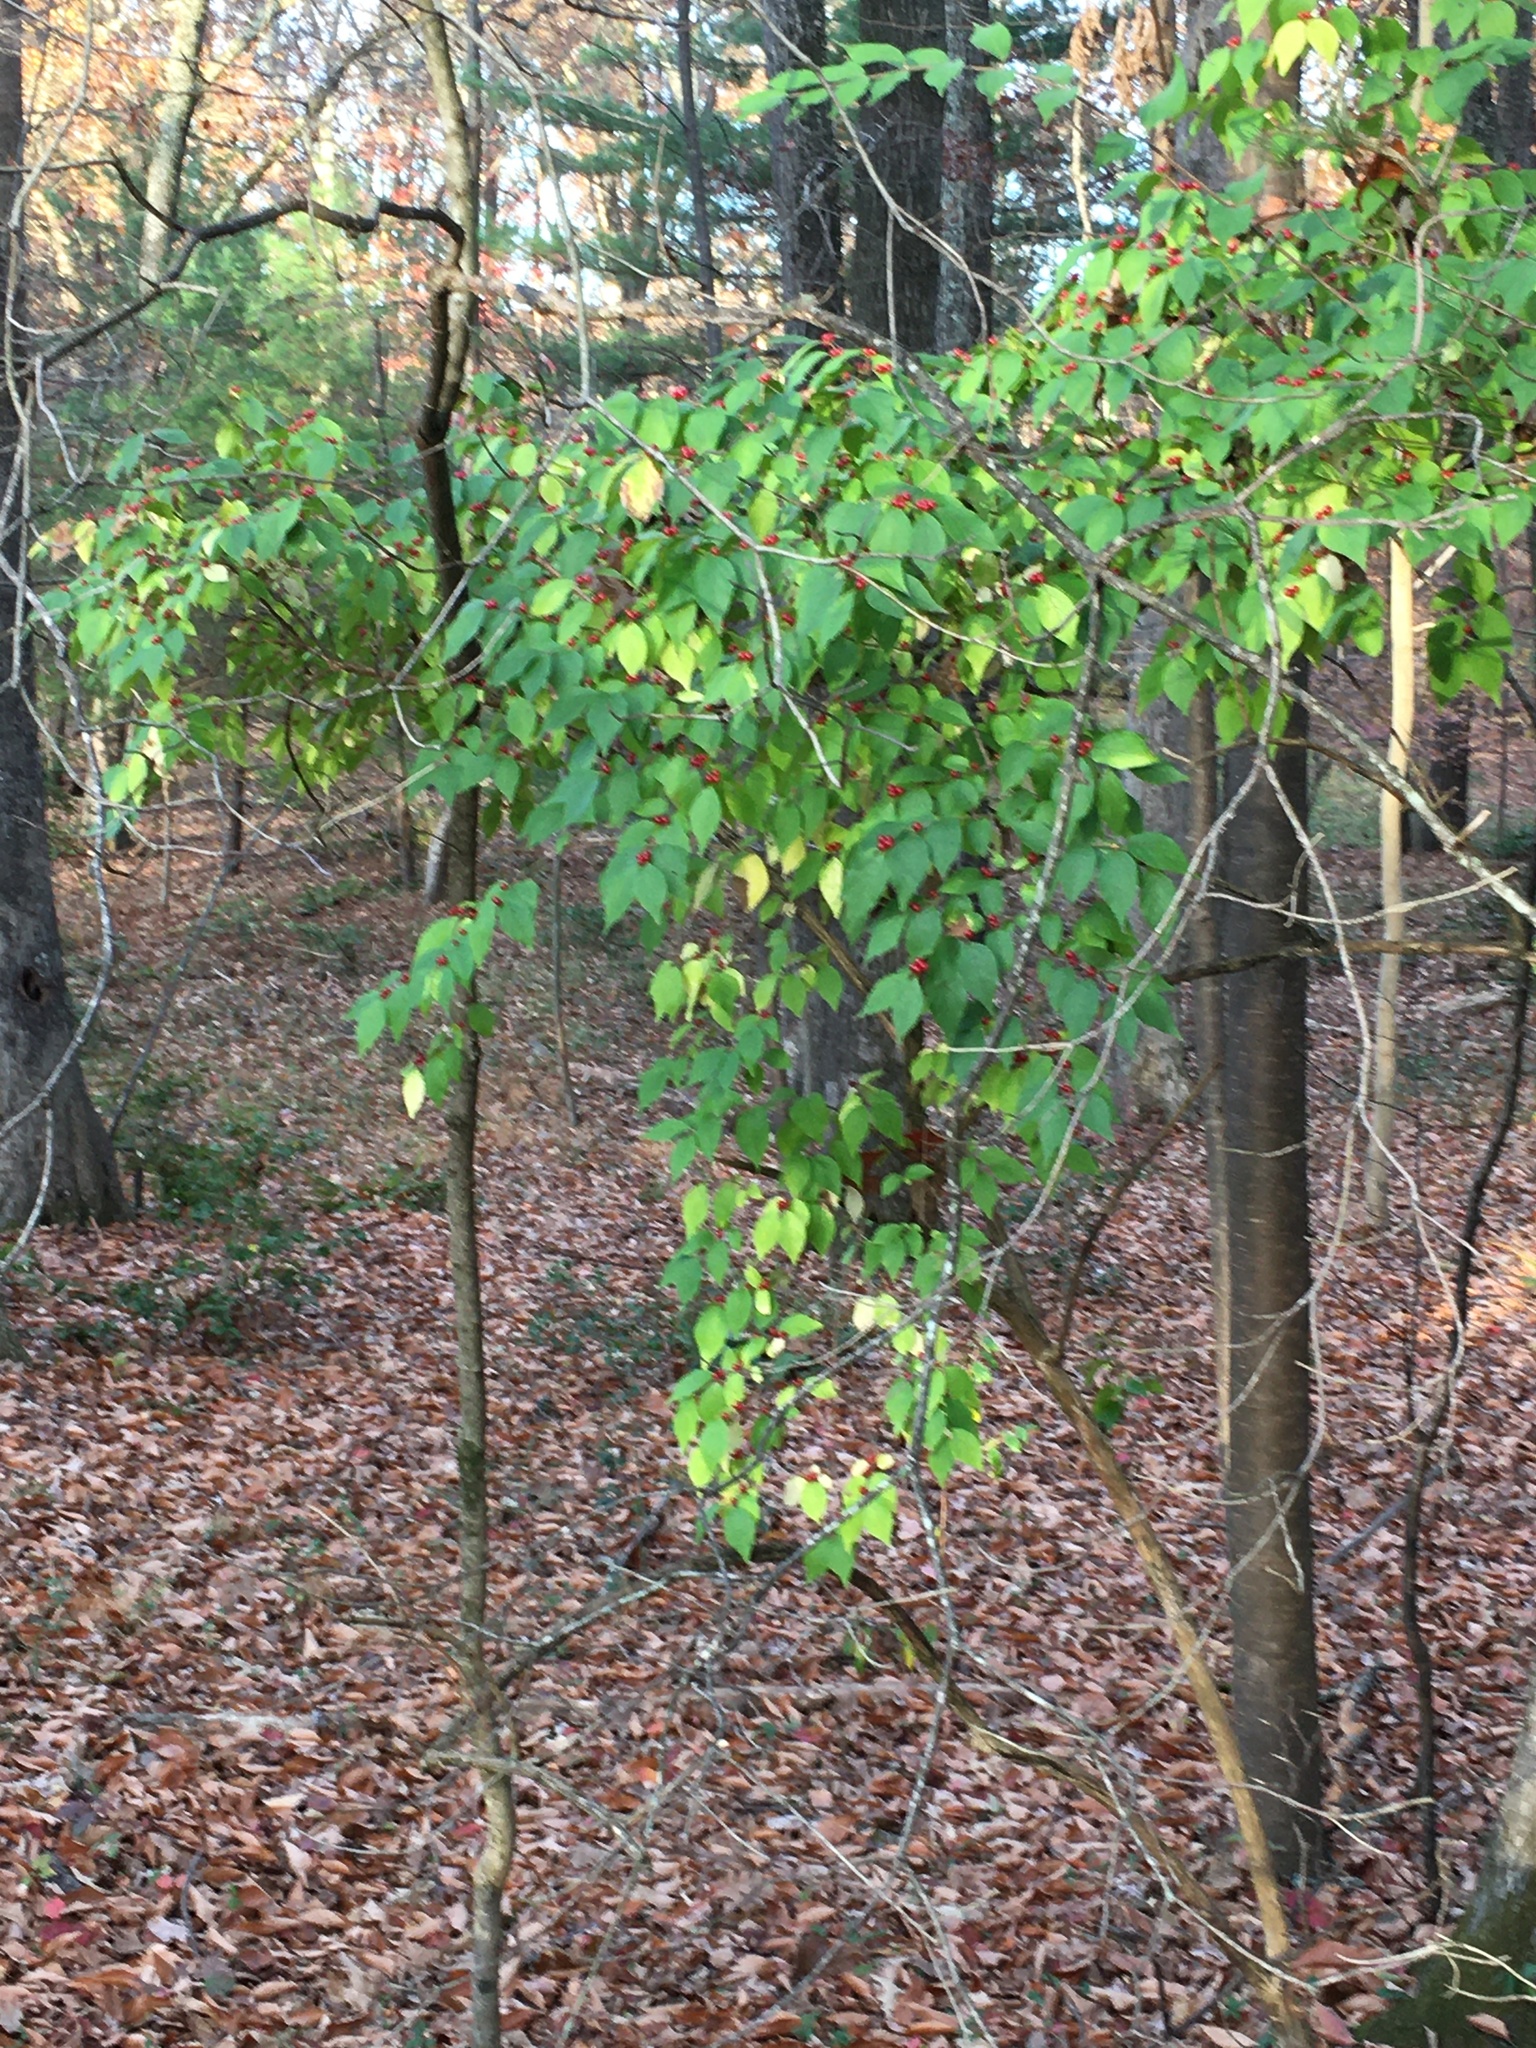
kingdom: Plantae
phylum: Tracheophyta
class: Magnoliopsida
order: Dipsacales
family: Caprifoliaceae
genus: Lonicera
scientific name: Lonicera maackii
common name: Amur honeysuckle
